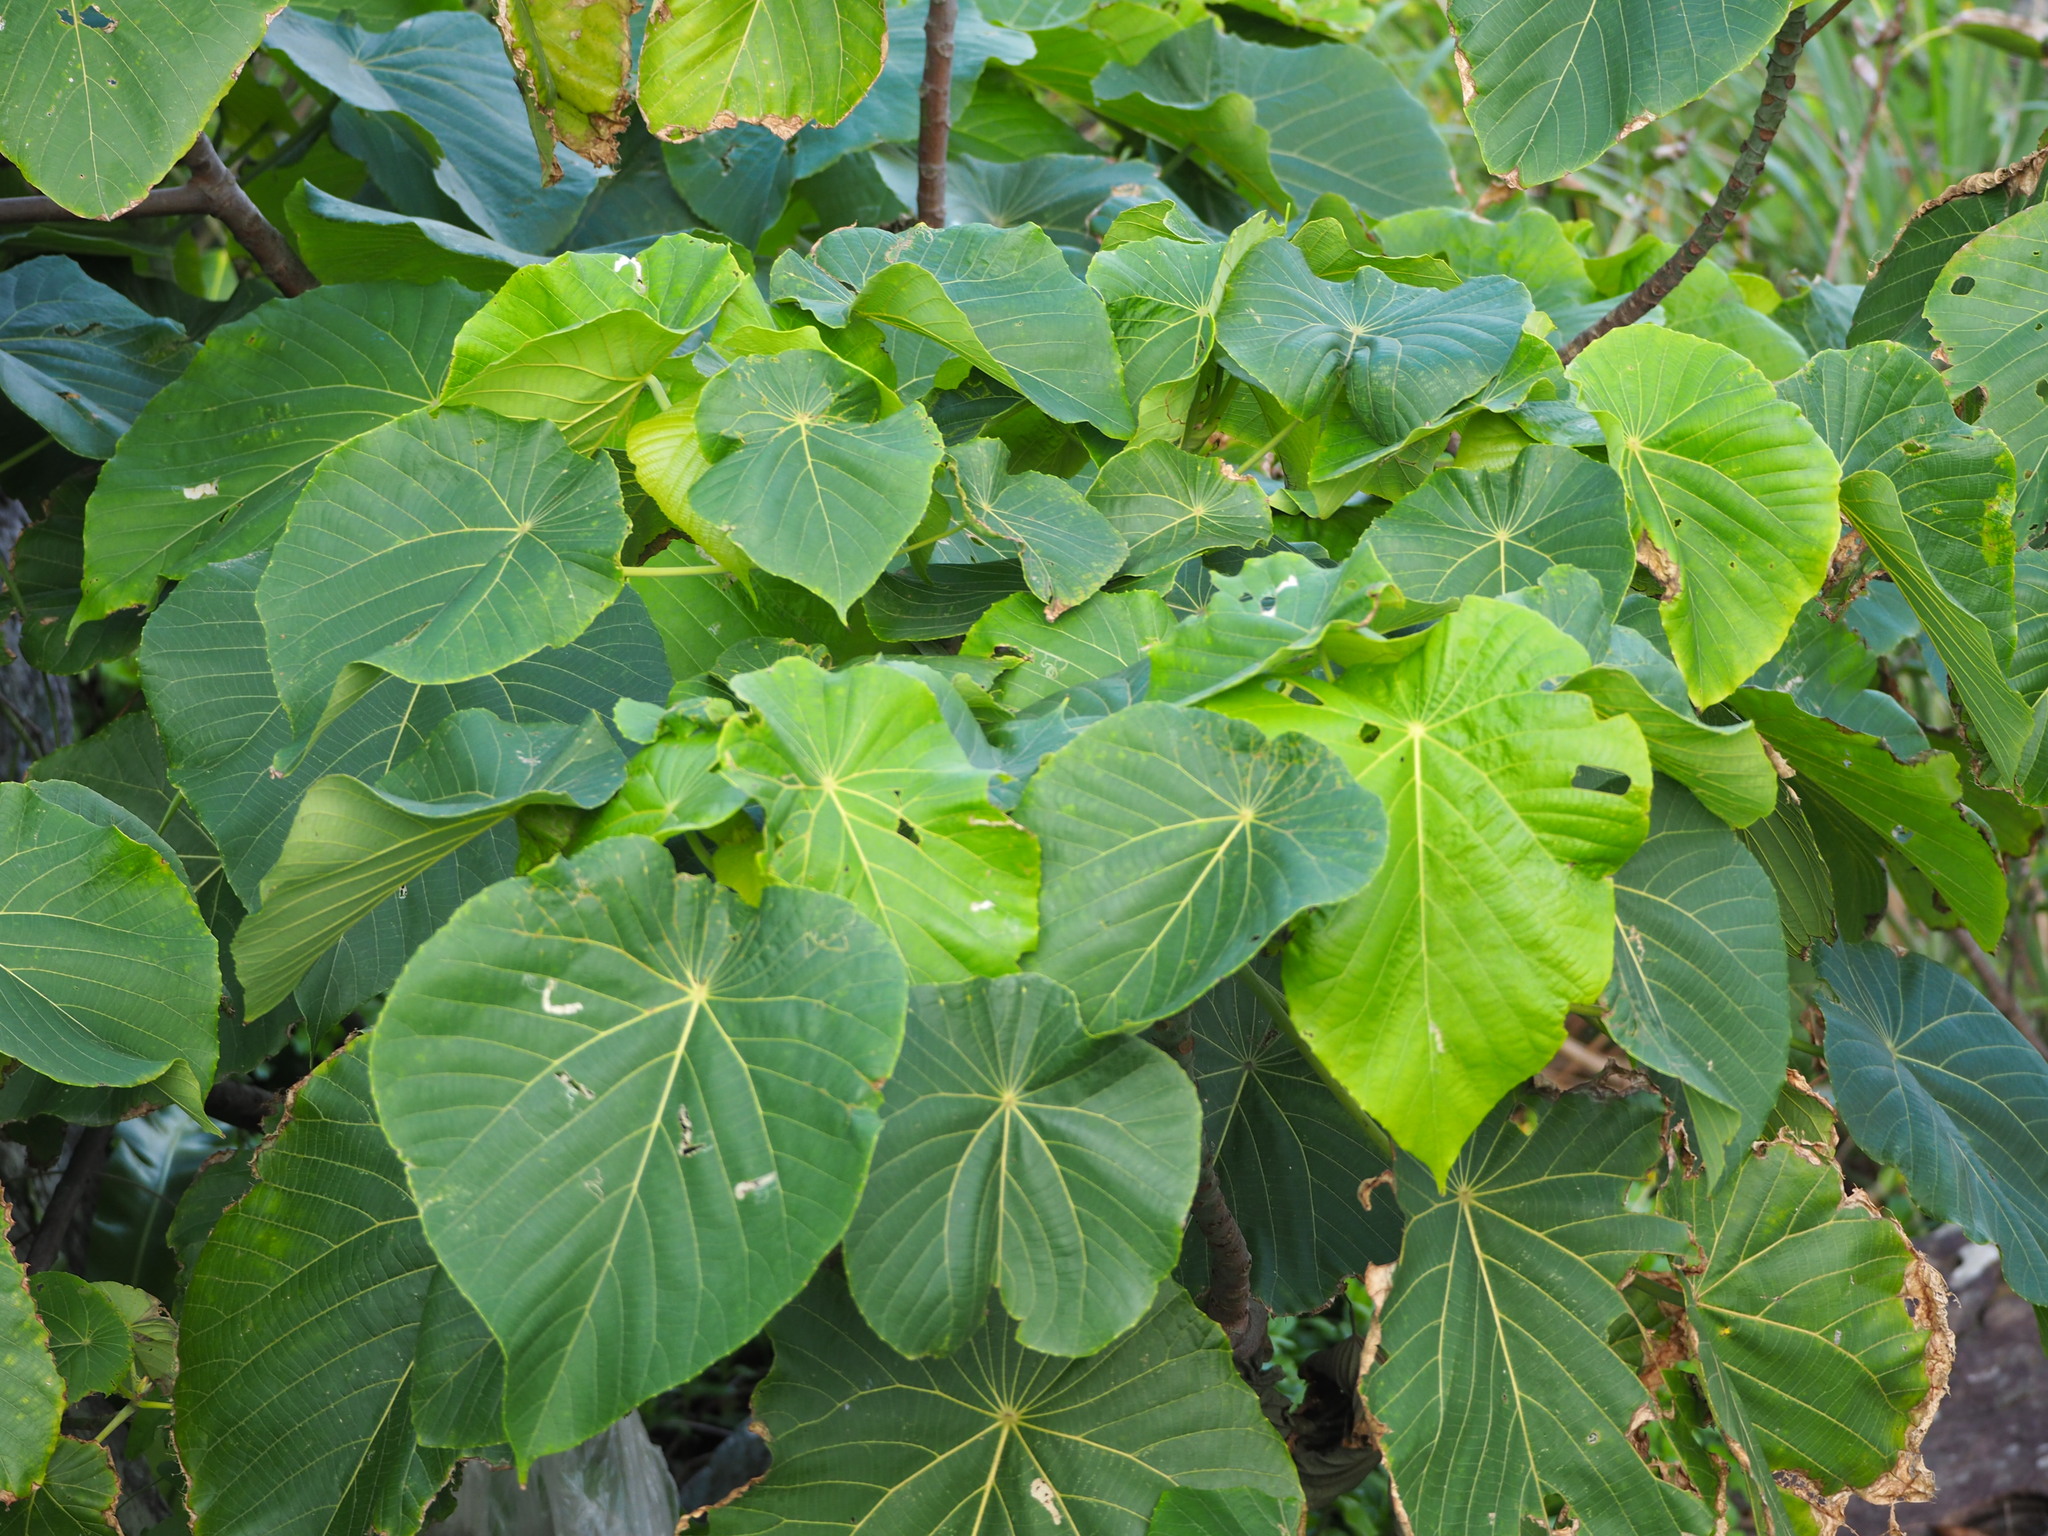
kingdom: Plantae
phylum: Tracheophyta
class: Magnoliopsida
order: Malpighiales
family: Euphorbiaceae
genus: Macaranga
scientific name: Macaranga tanarius
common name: Parasol leaf tree
